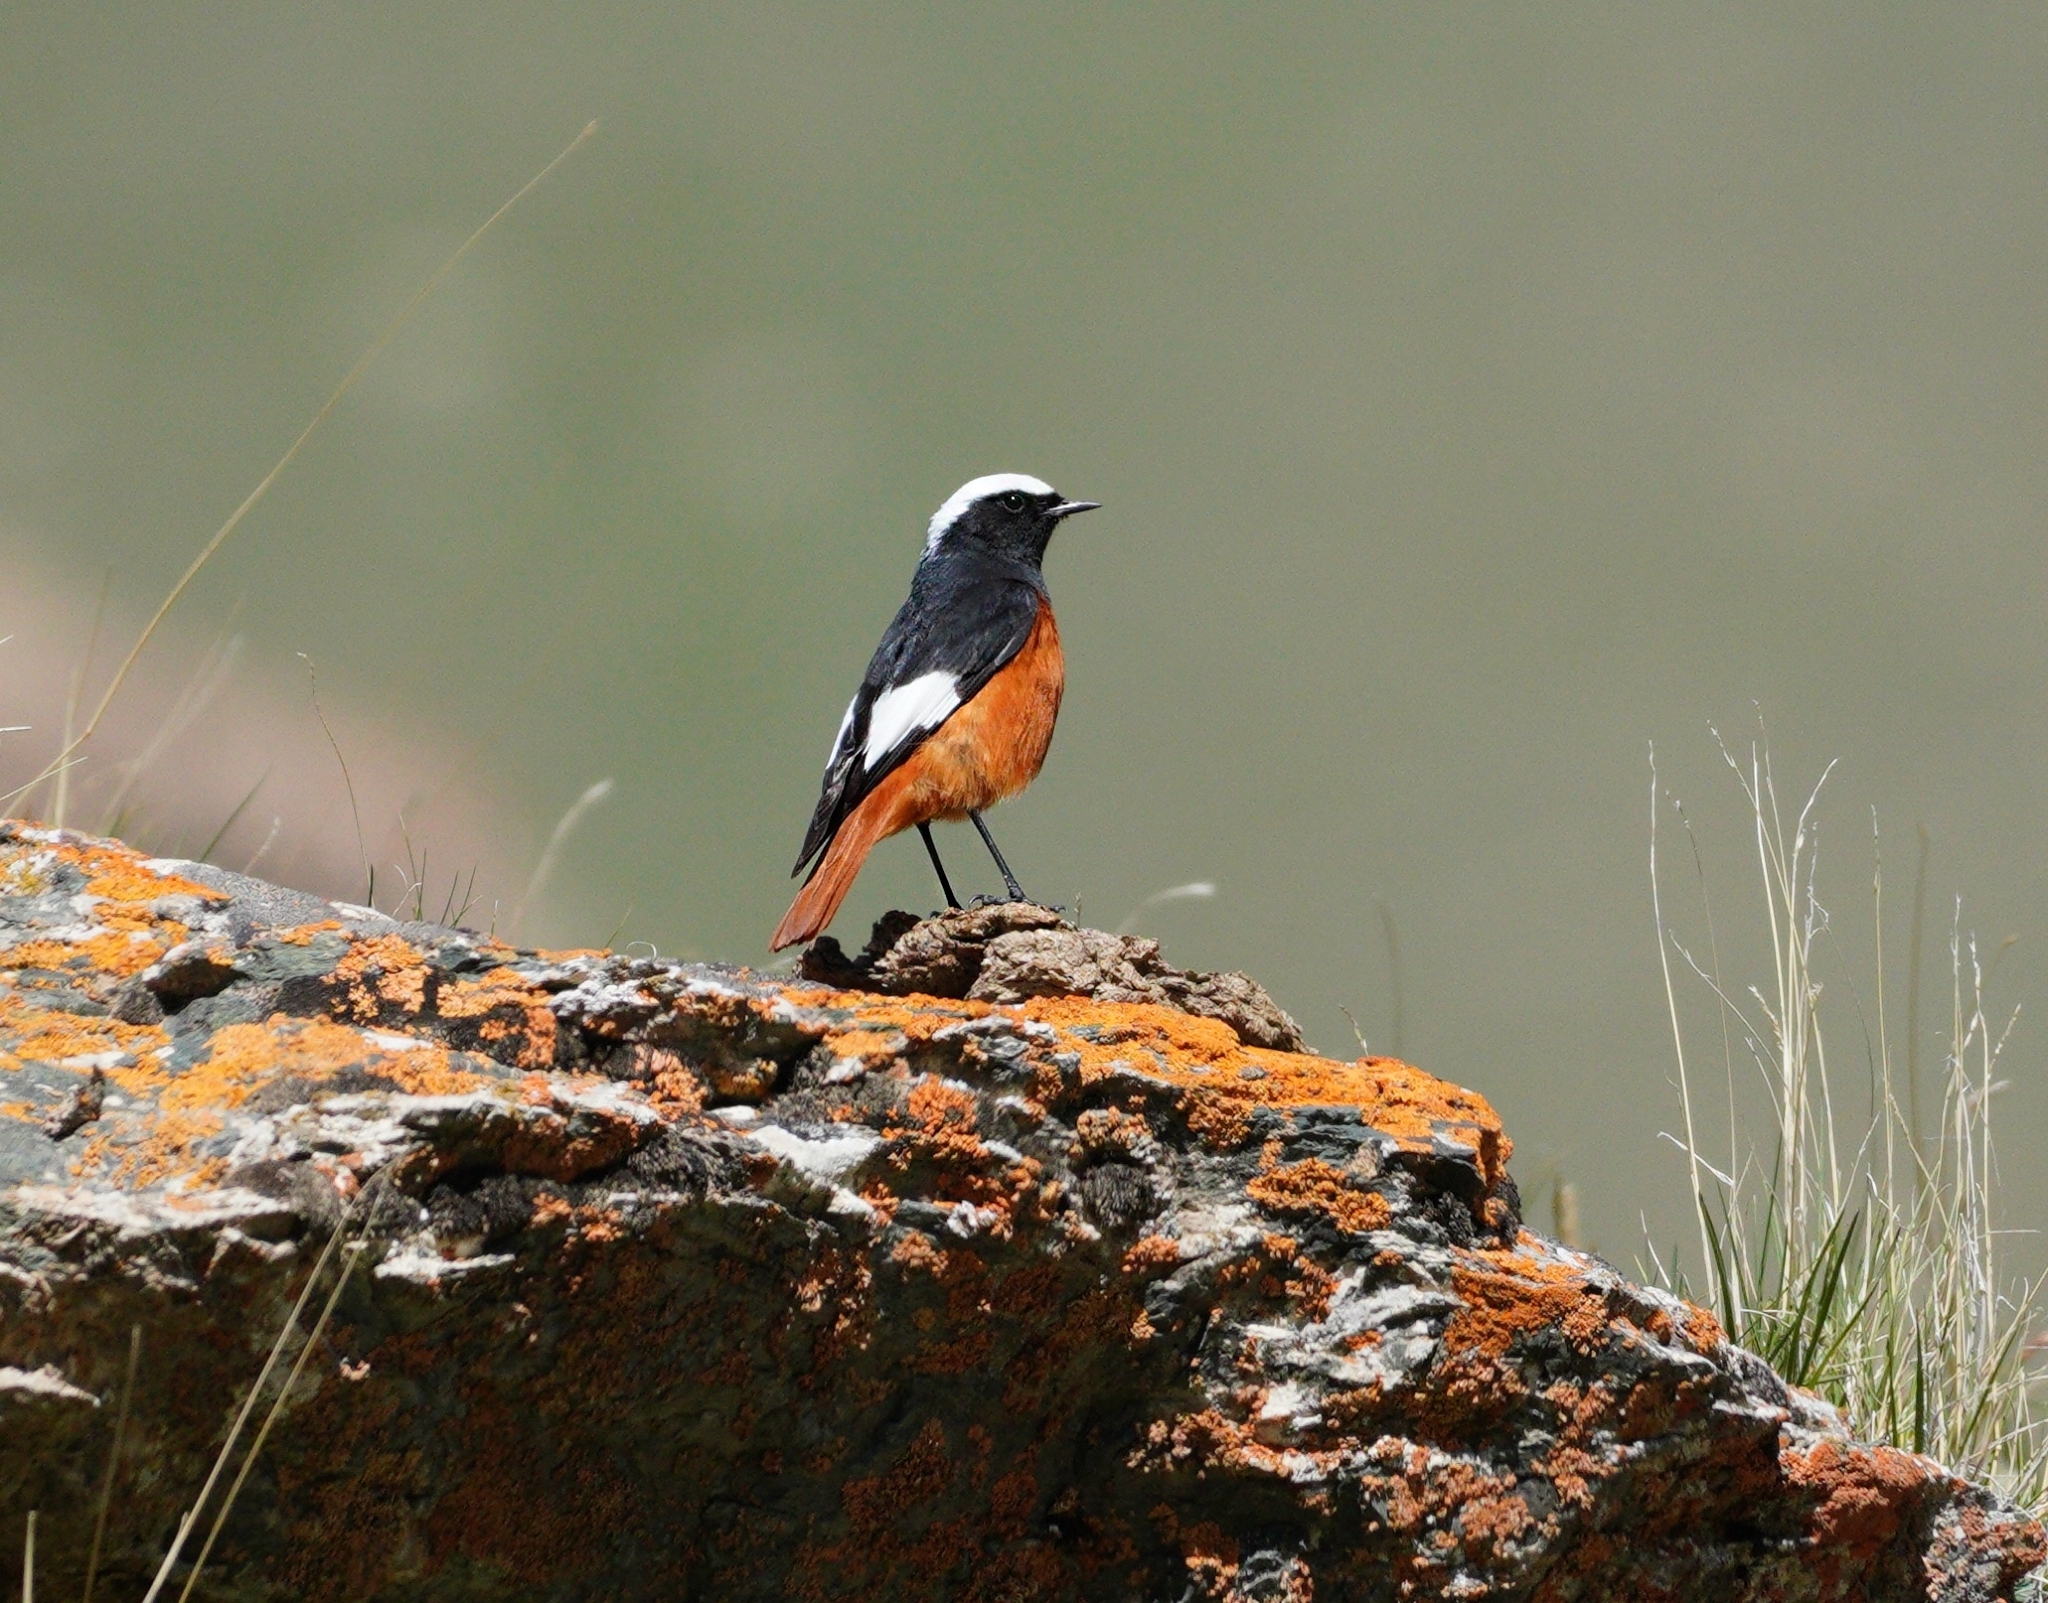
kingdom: Animalia
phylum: Chordata
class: Aves
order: Passeriformes
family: Muscicapidae
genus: Phoenicurus
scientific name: Phoenicurus erythrogastrus
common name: Güldenstädt's redstart
